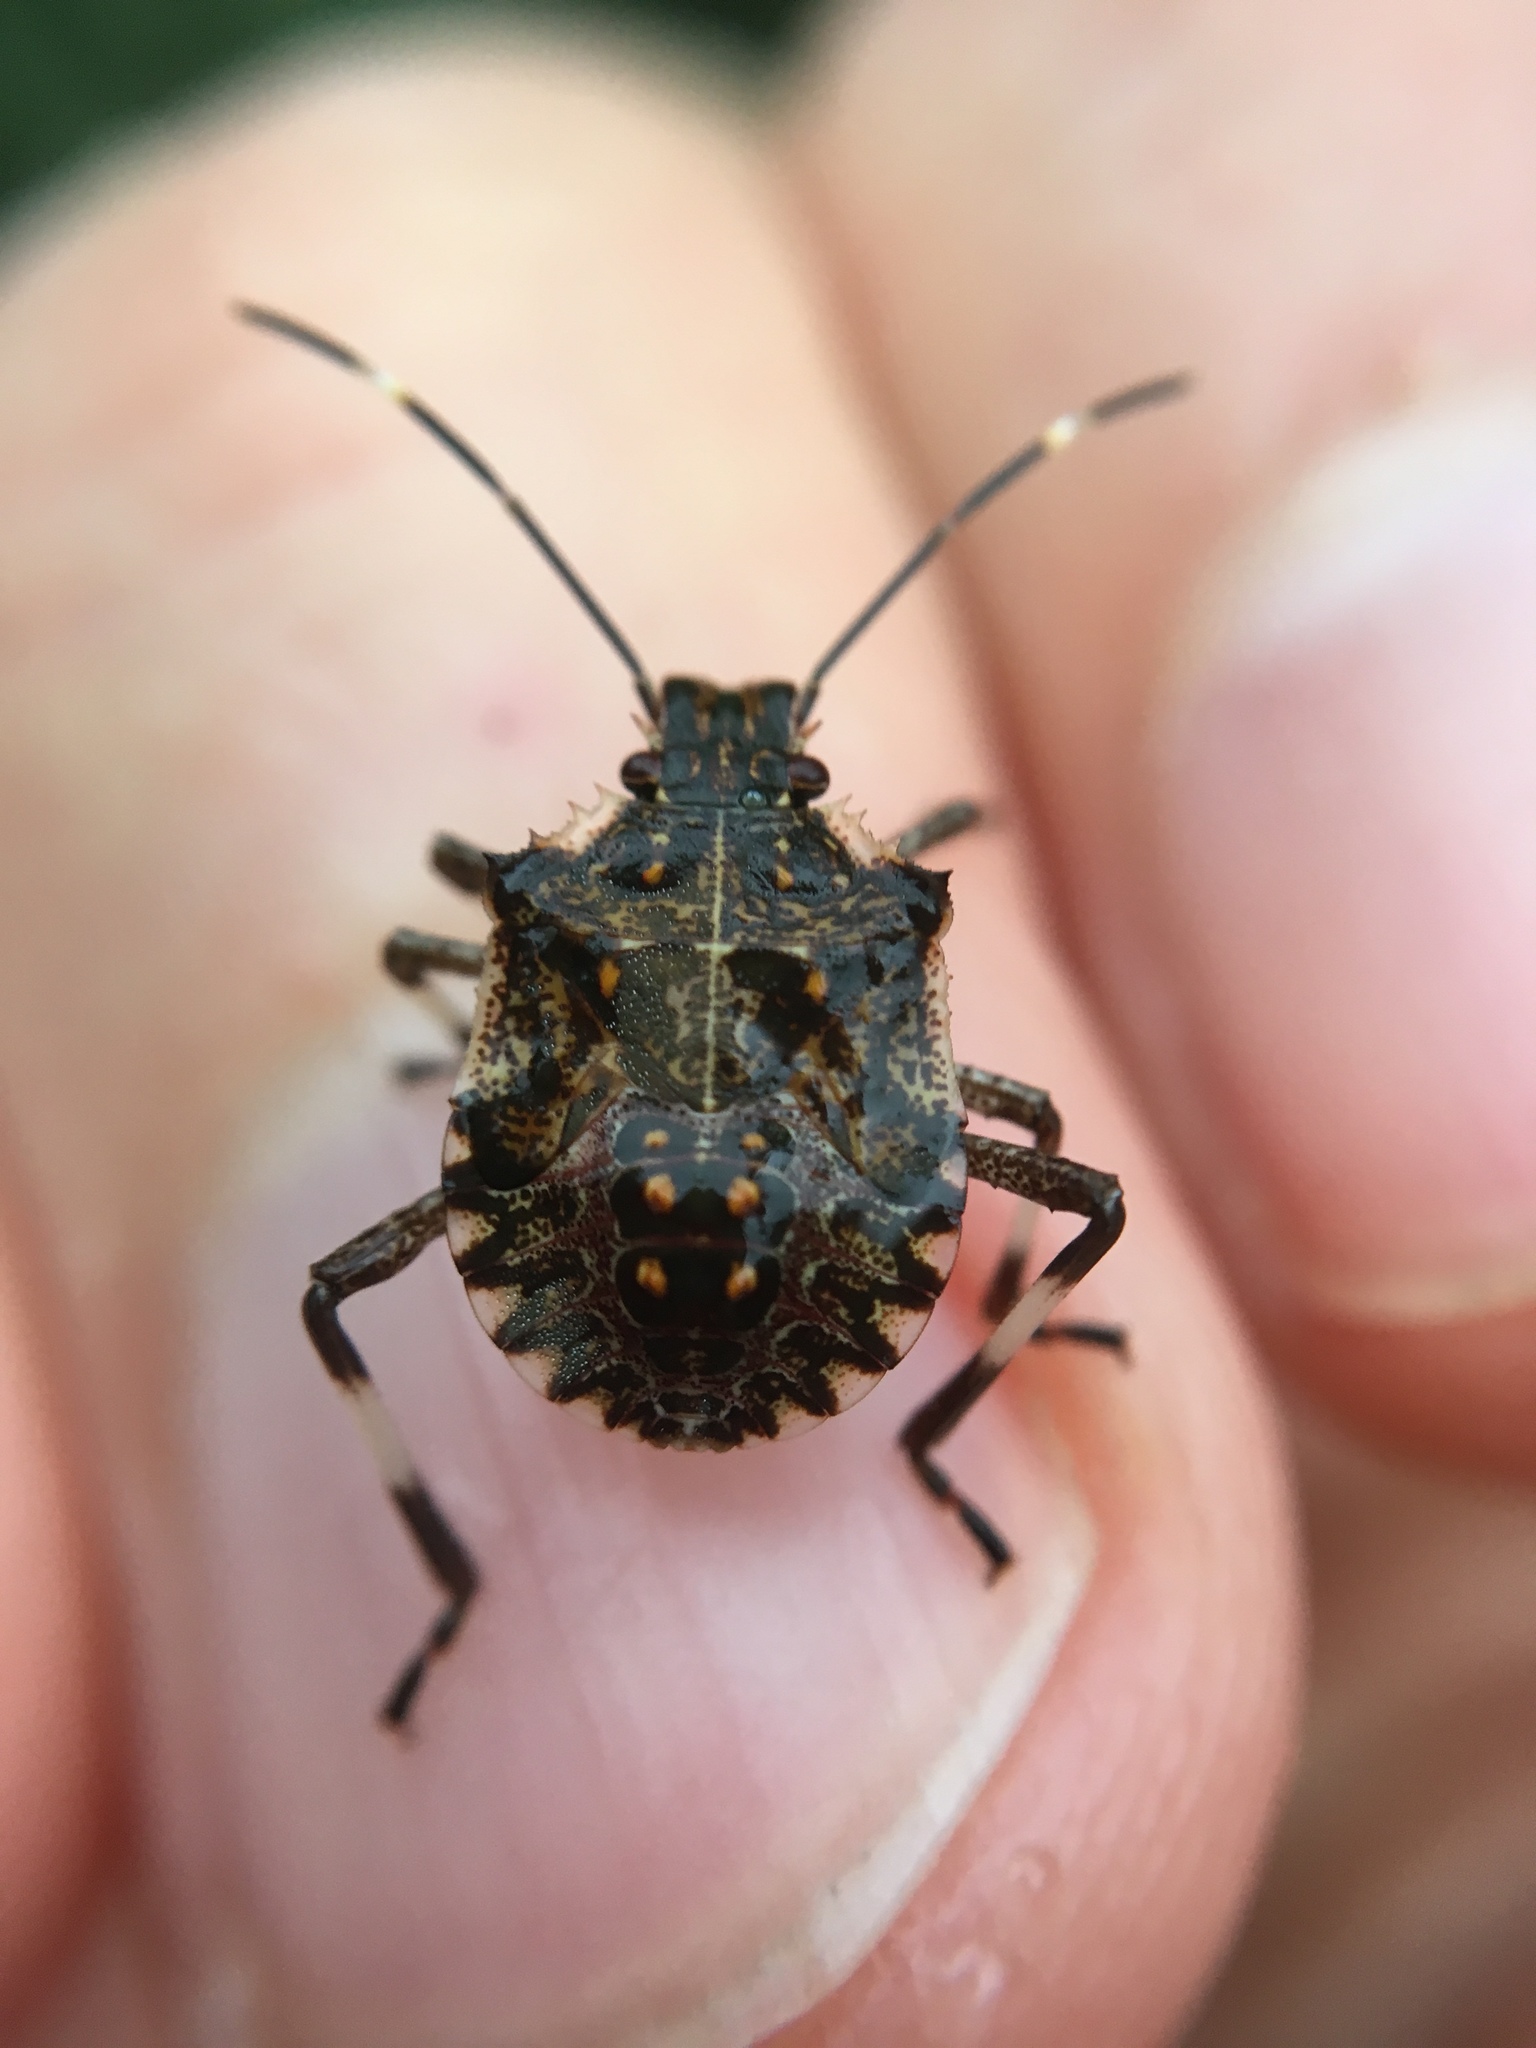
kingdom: Animalia
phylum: Arthropoda
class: Insecta
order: Hemiptera
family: Pentatomidae
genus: Halyomorpha
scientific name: Halyomorpha halys
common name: Brown marmorated stink bug
